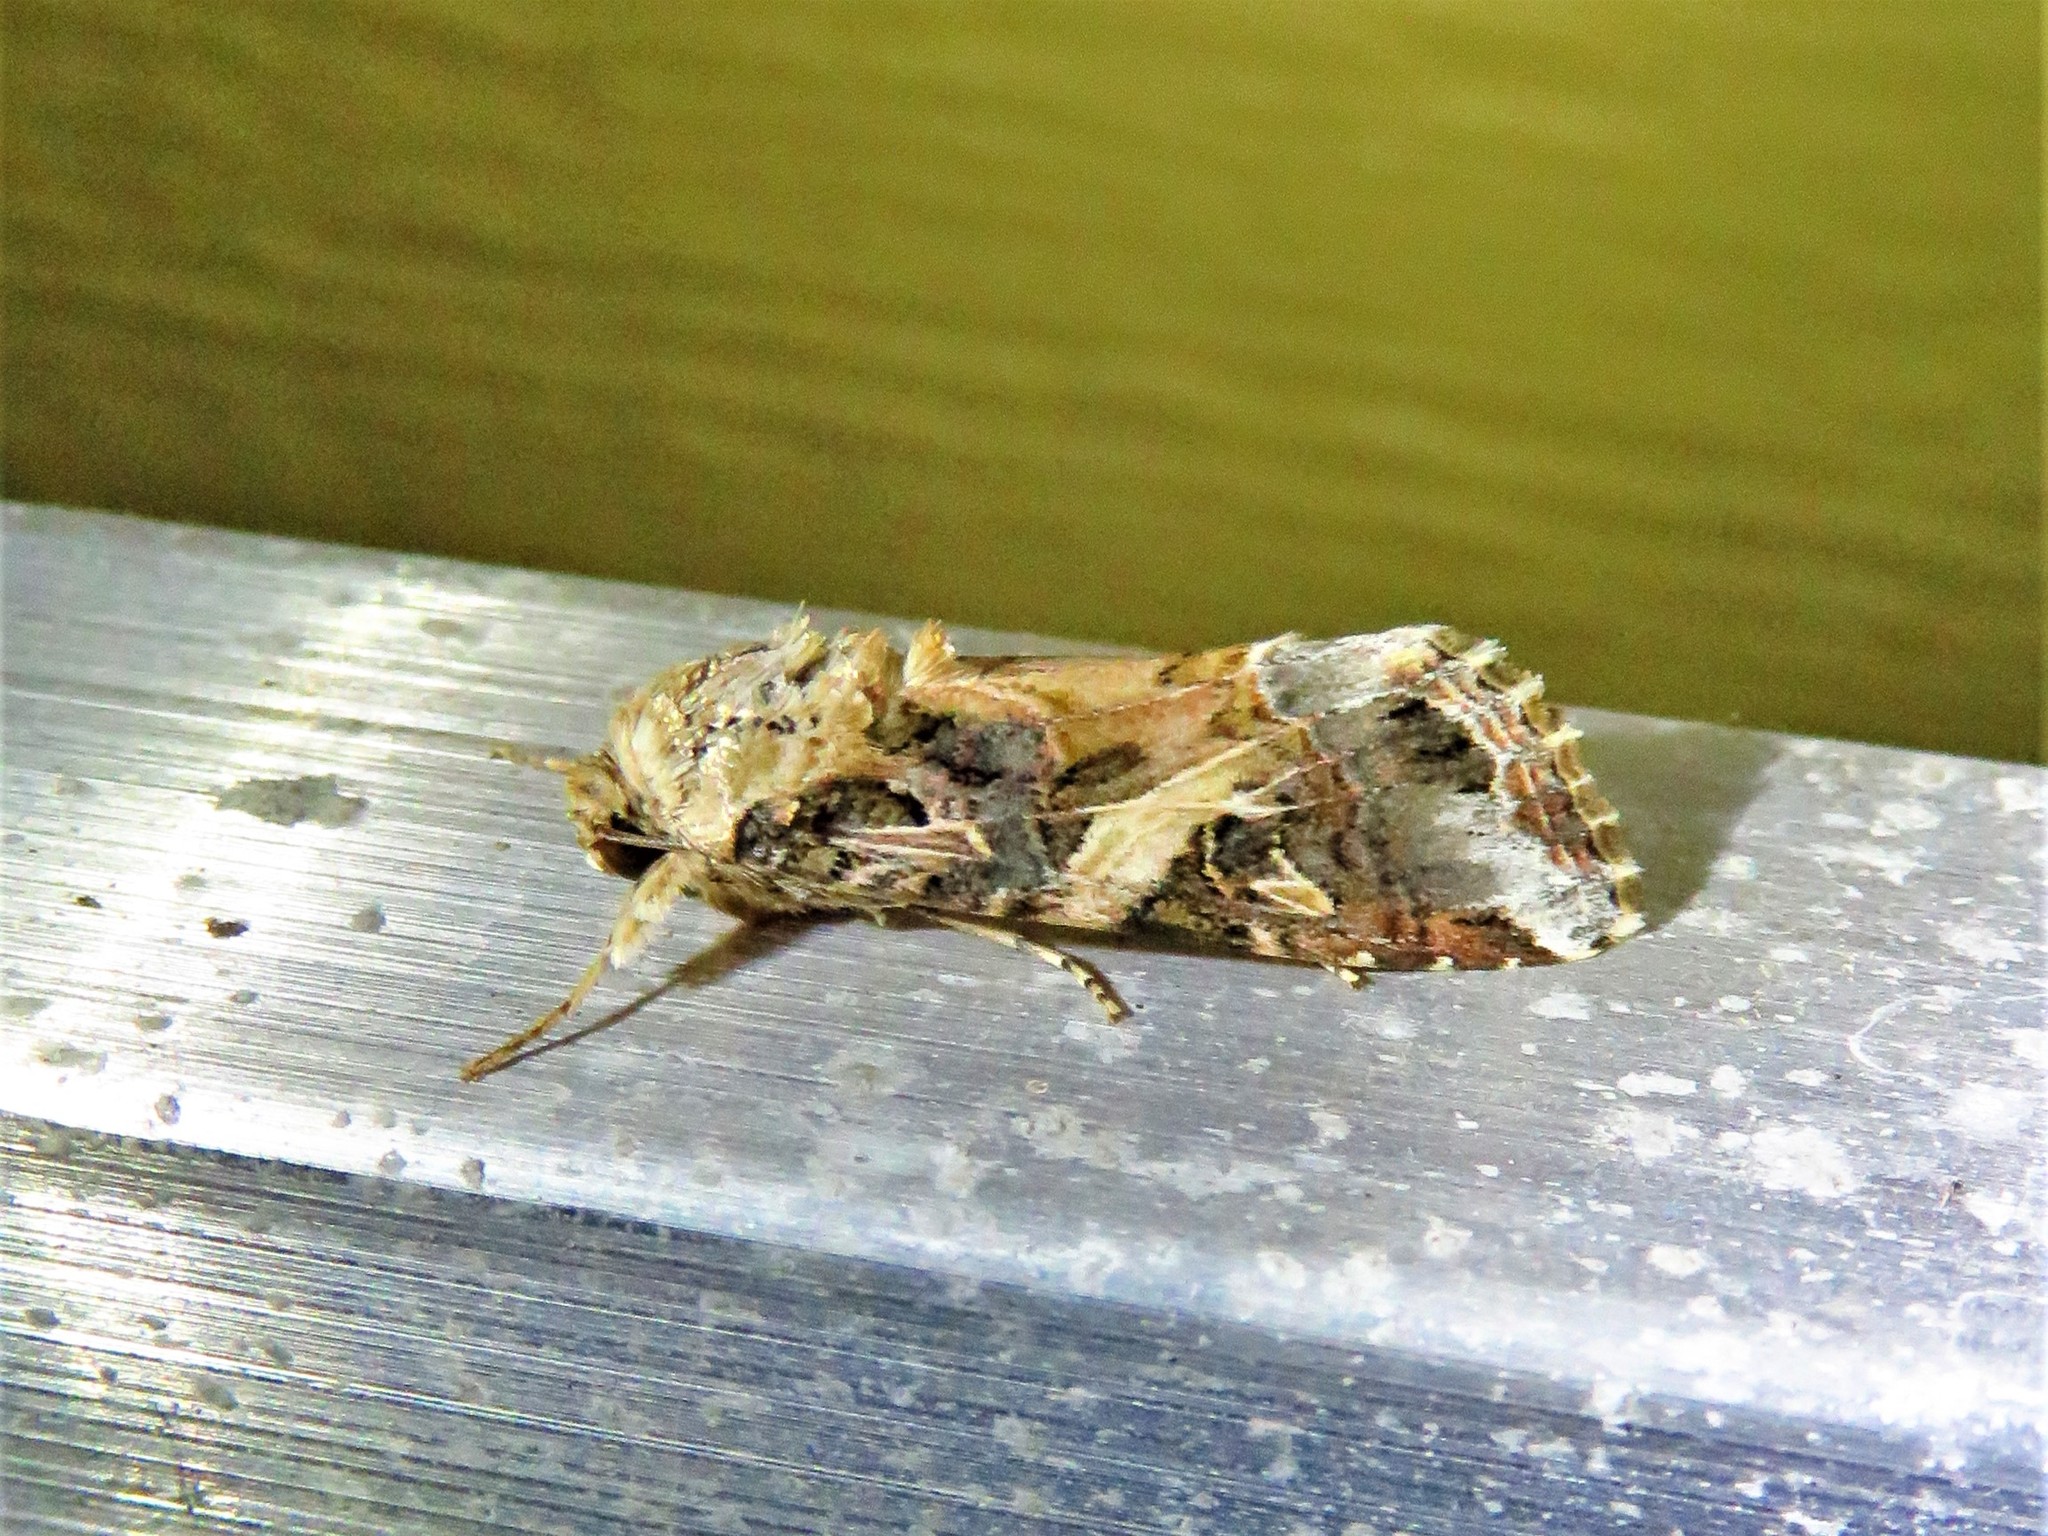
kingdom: Animalia
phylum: Arthropoda
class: Insecta
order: Lepidoptera
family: Noctuidae
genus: Spodoptera
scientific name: Spodoptera ornithogalli
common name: Yellow-striped armyworm
